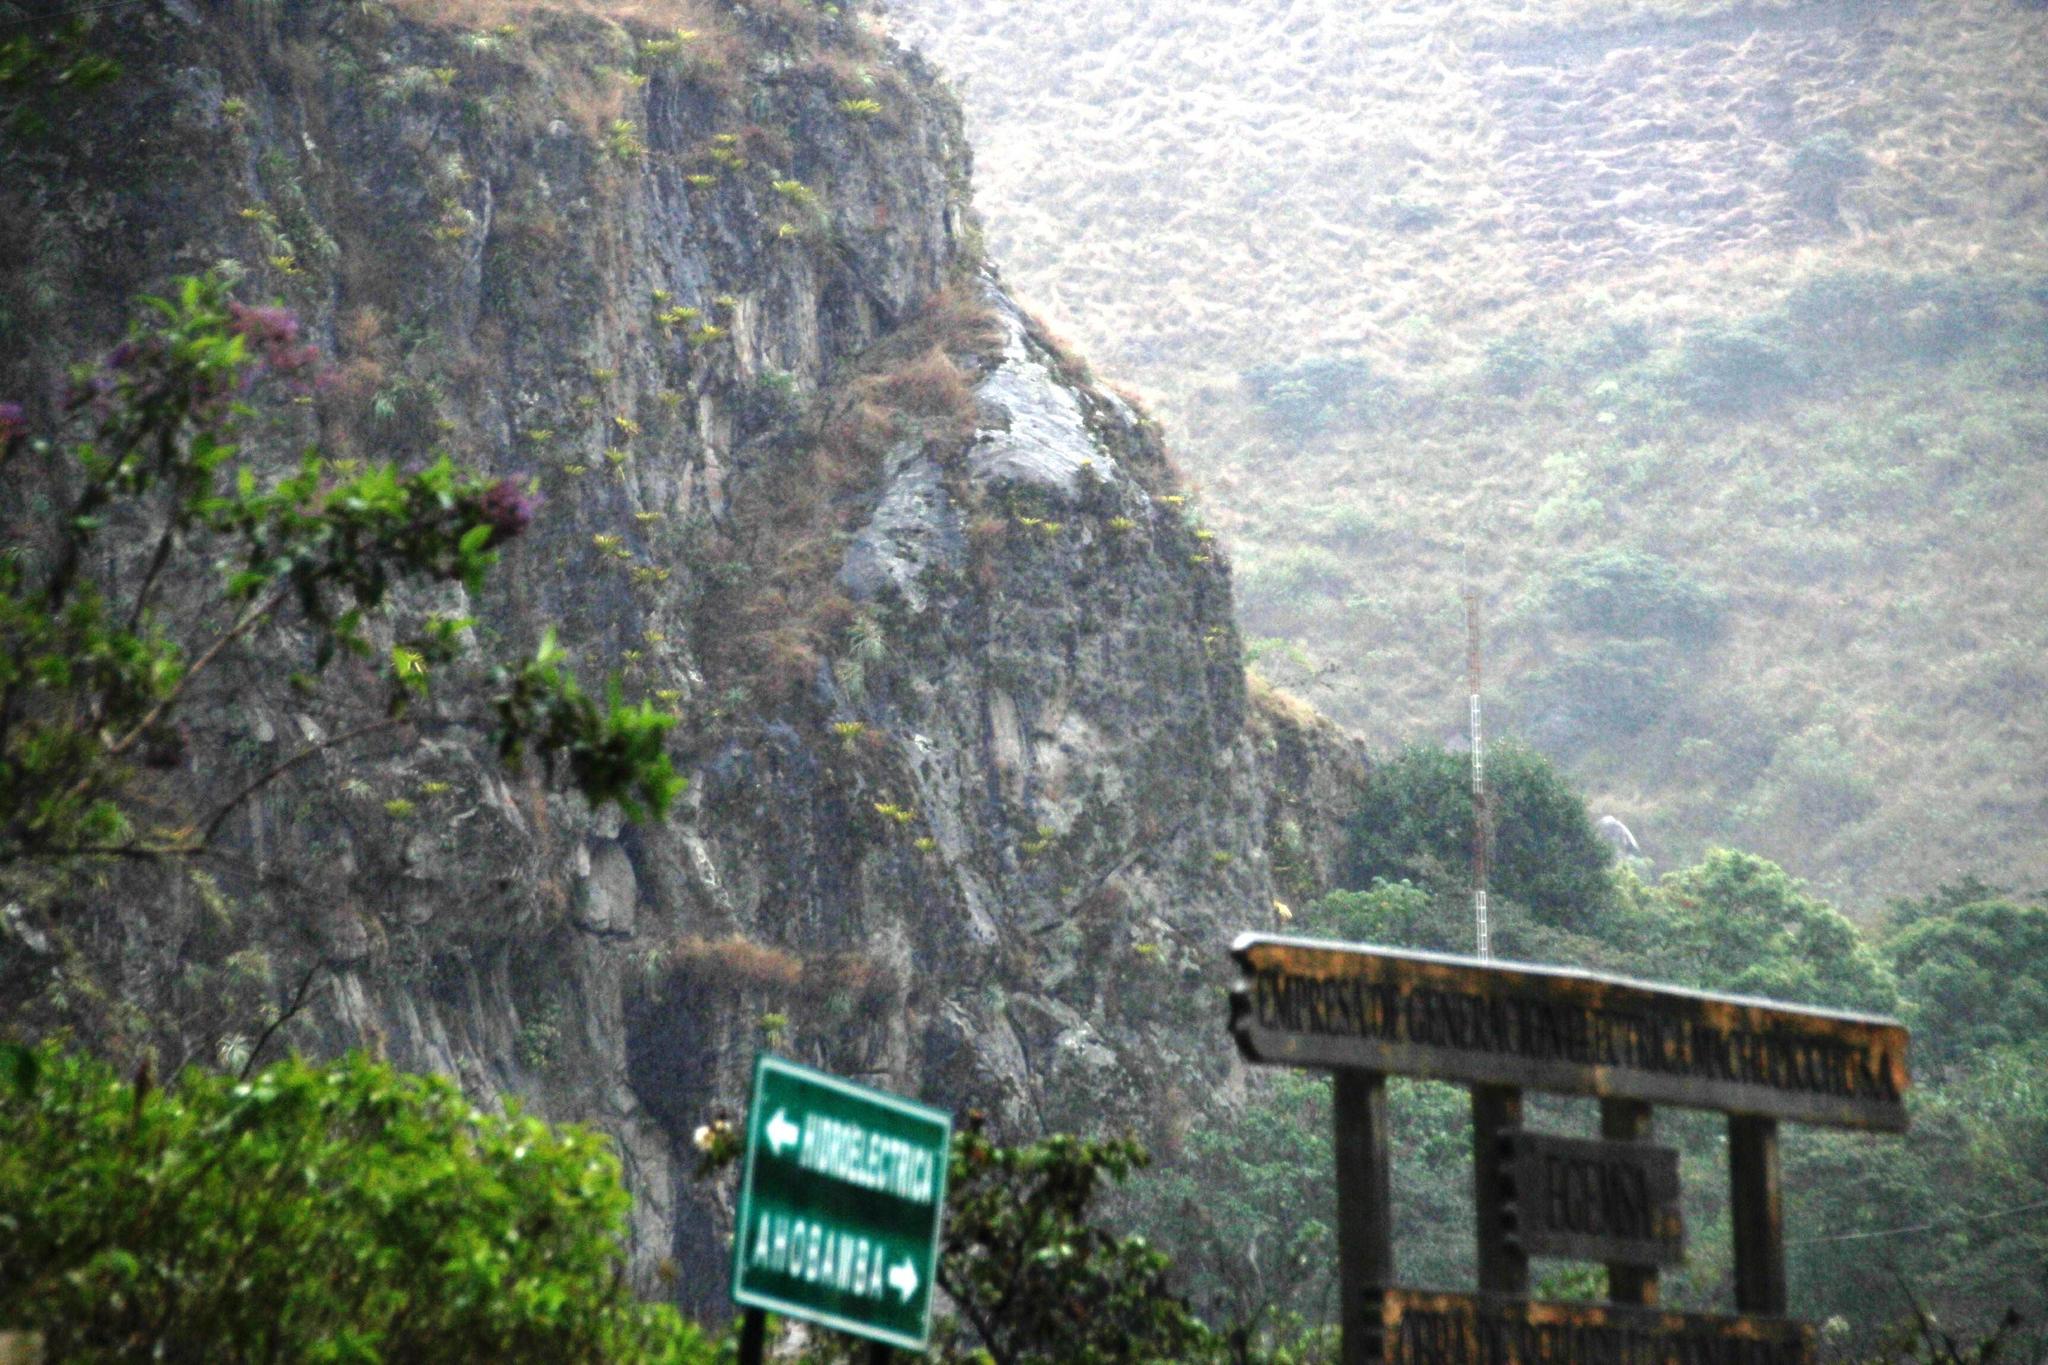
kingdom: Plantae
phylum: Tracheophyta
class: Liliopsida
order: Poales
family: Bromeliaceae
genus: Tillandsia
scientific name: Tillandsia machupicchuensis
